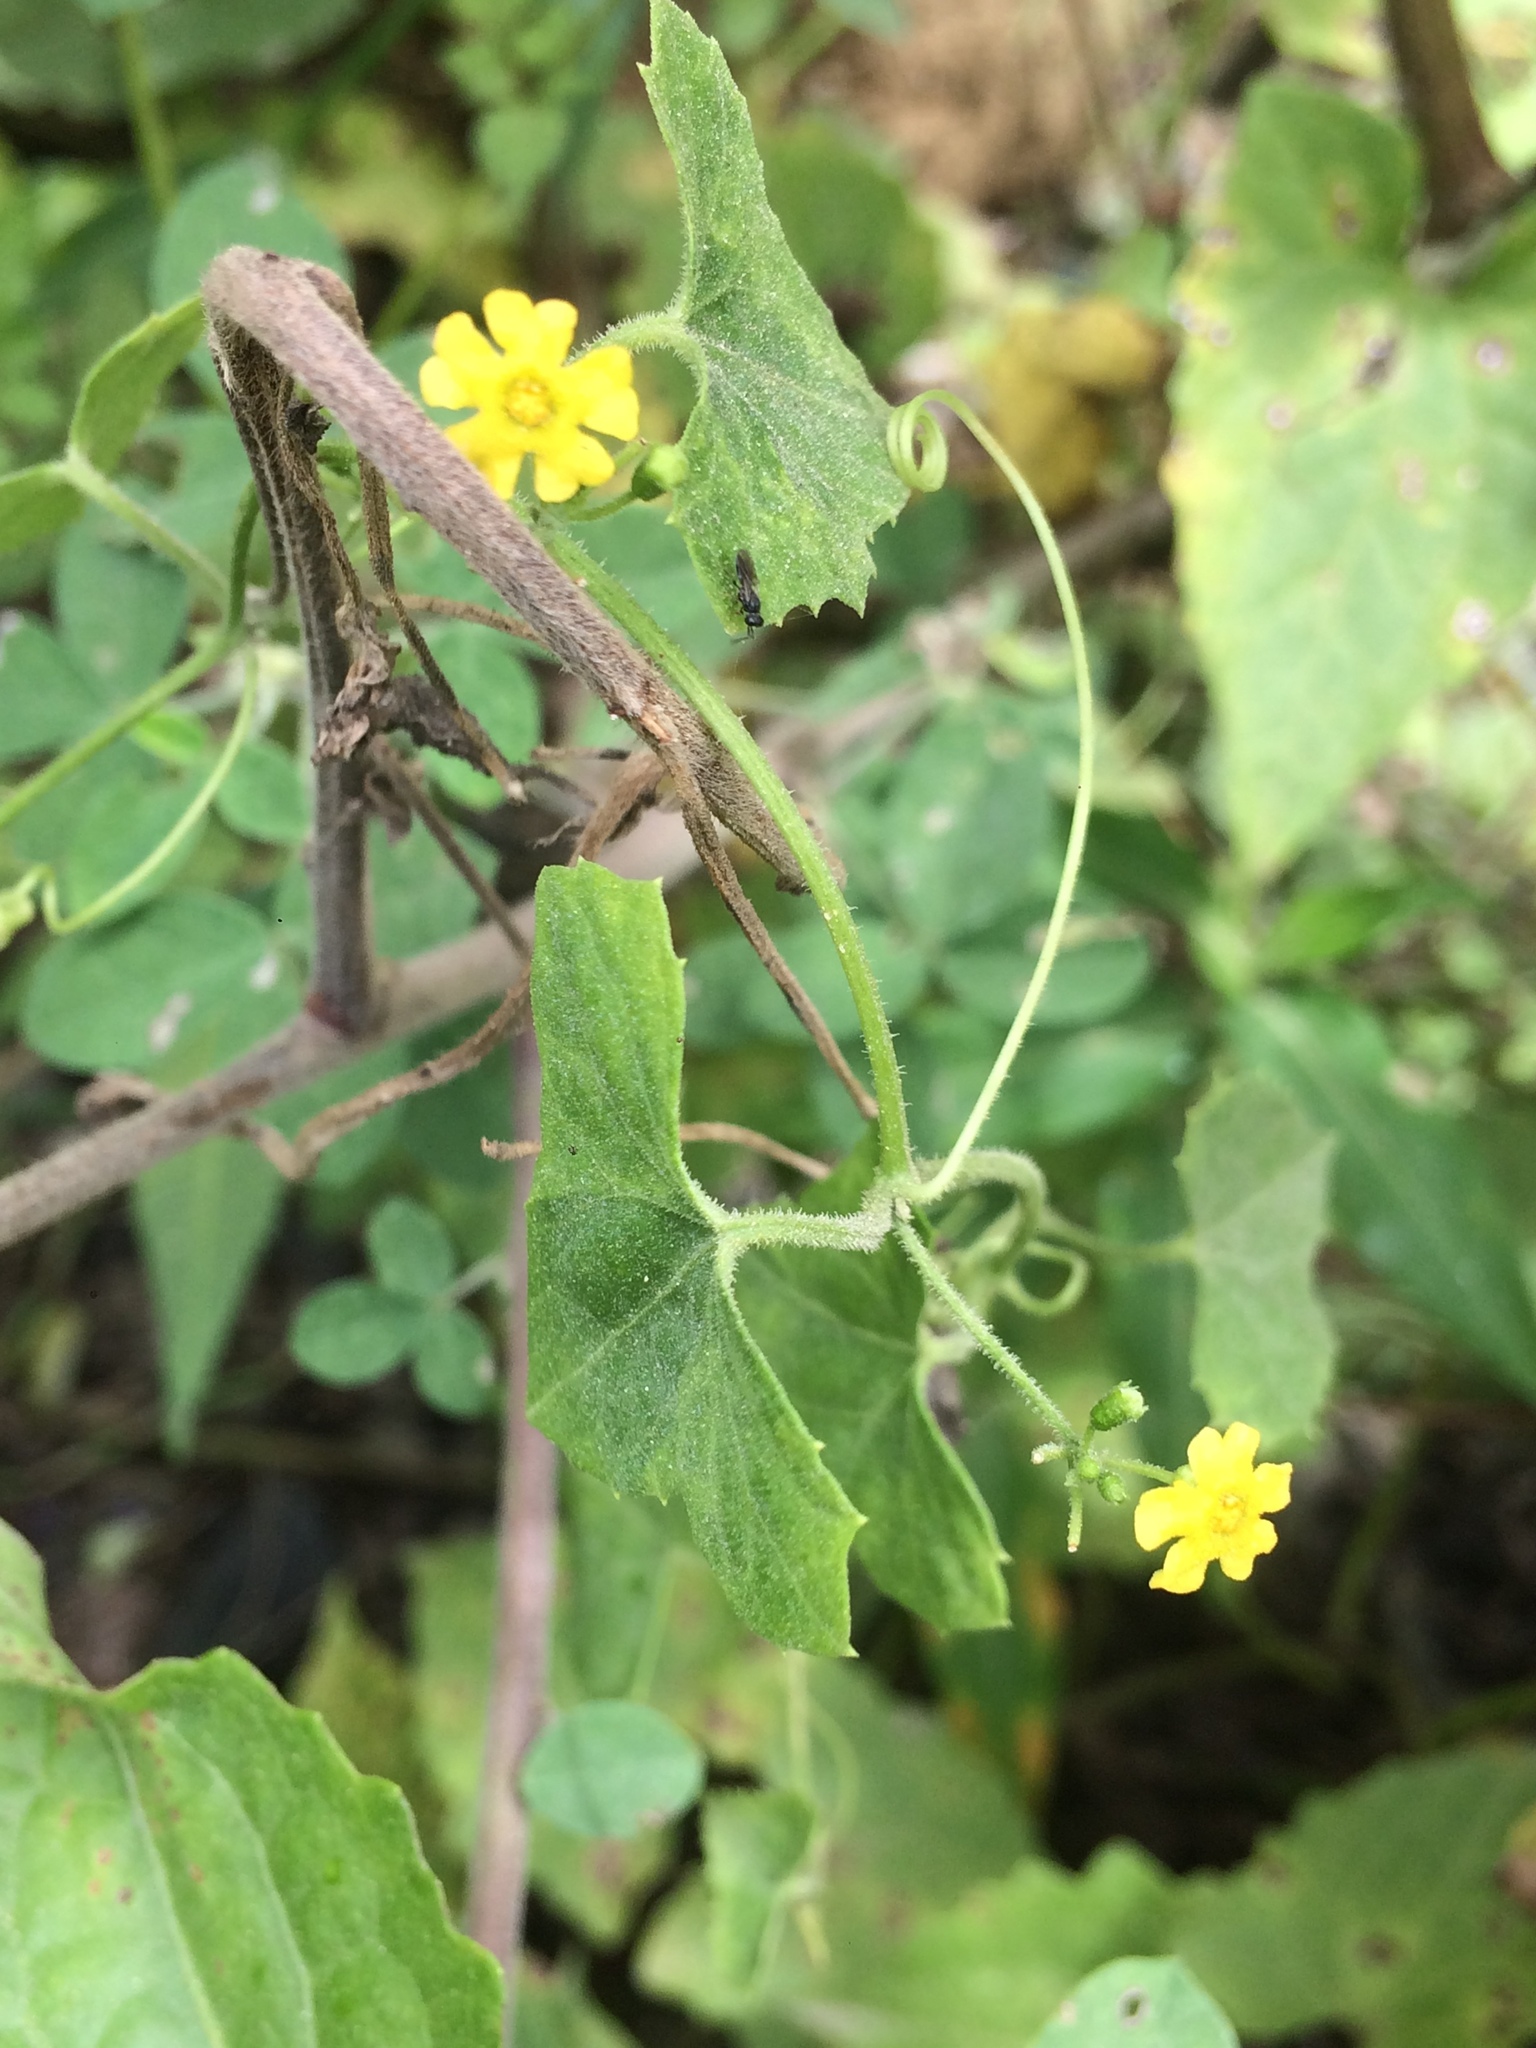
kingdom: Plantae
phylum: Tracheophyta
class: Magnoliopsida
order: Cucurbitales
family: Cucurbitaceae
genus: Melothria
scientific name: Melothria pendula
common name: Creeping-cucumber
